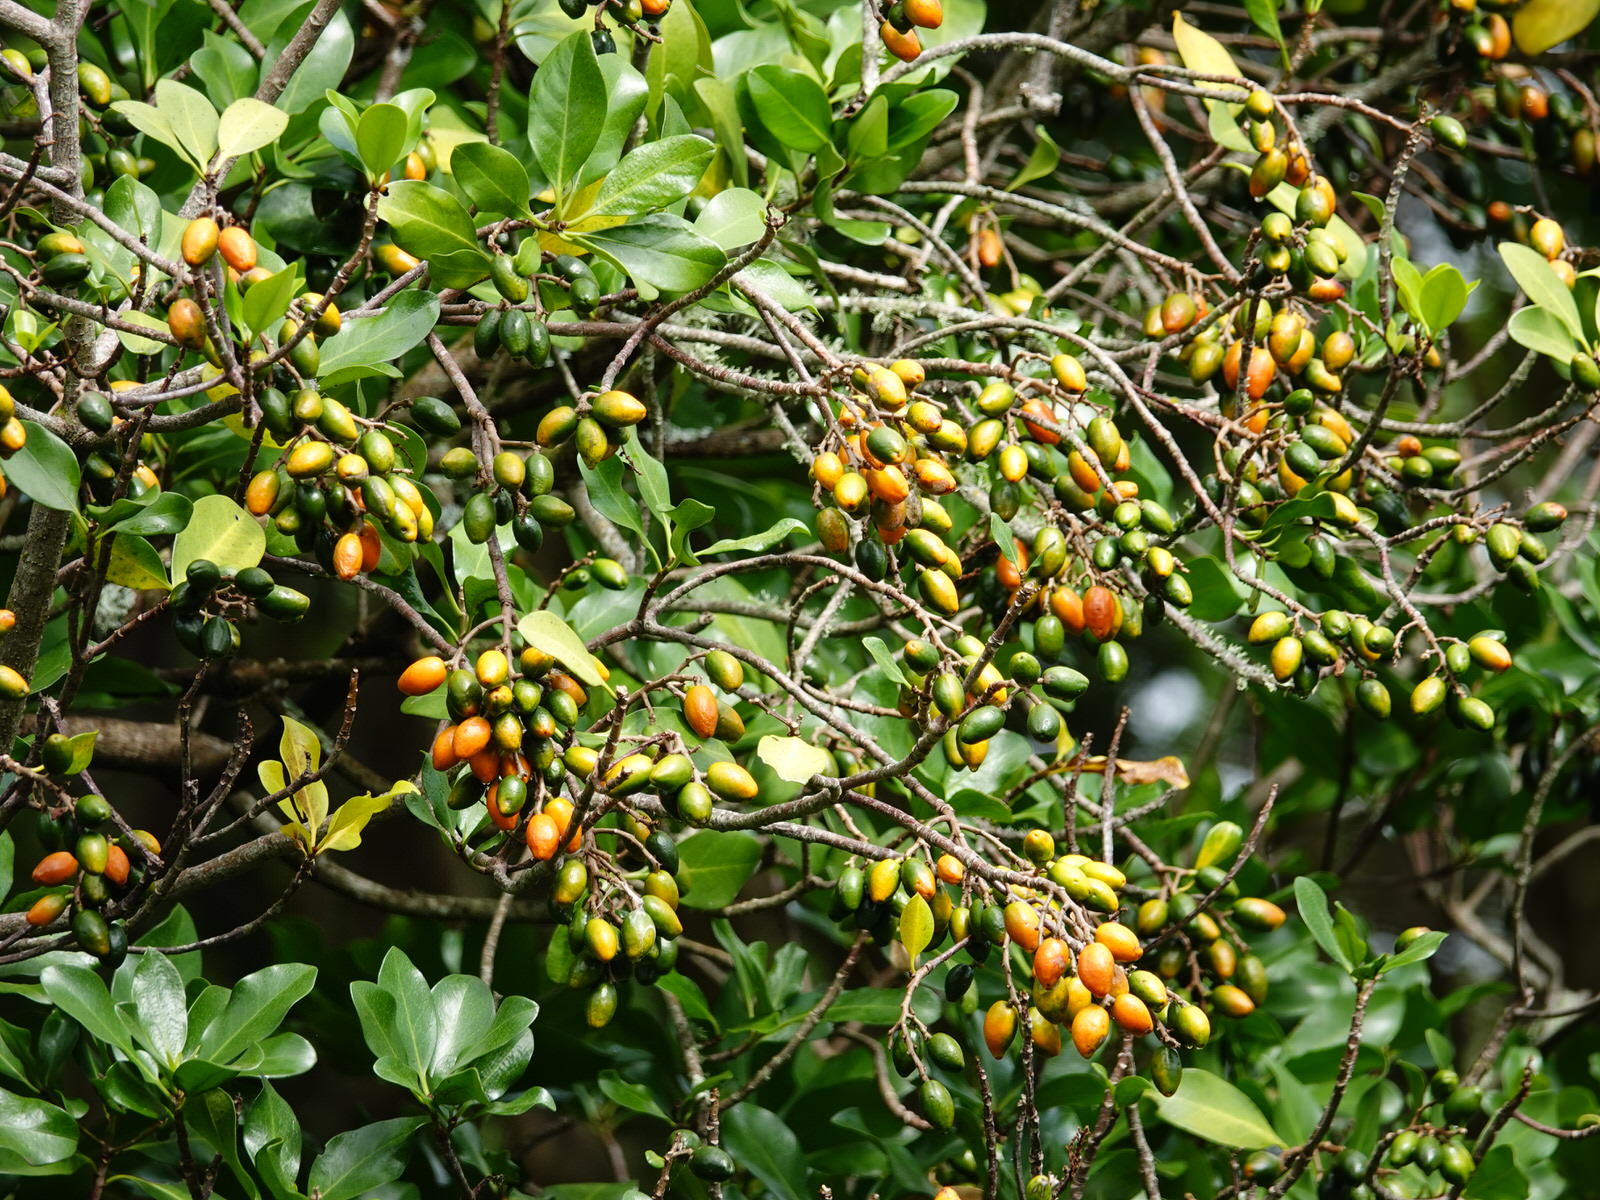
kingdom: Plantae
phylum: Tracheophyta
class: Magnoliopsida
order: Cucurbitales
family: Corynocarpaceae
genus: Corynocarpus
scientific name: Corynocarpus laevigatus
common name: New zealand laurel
